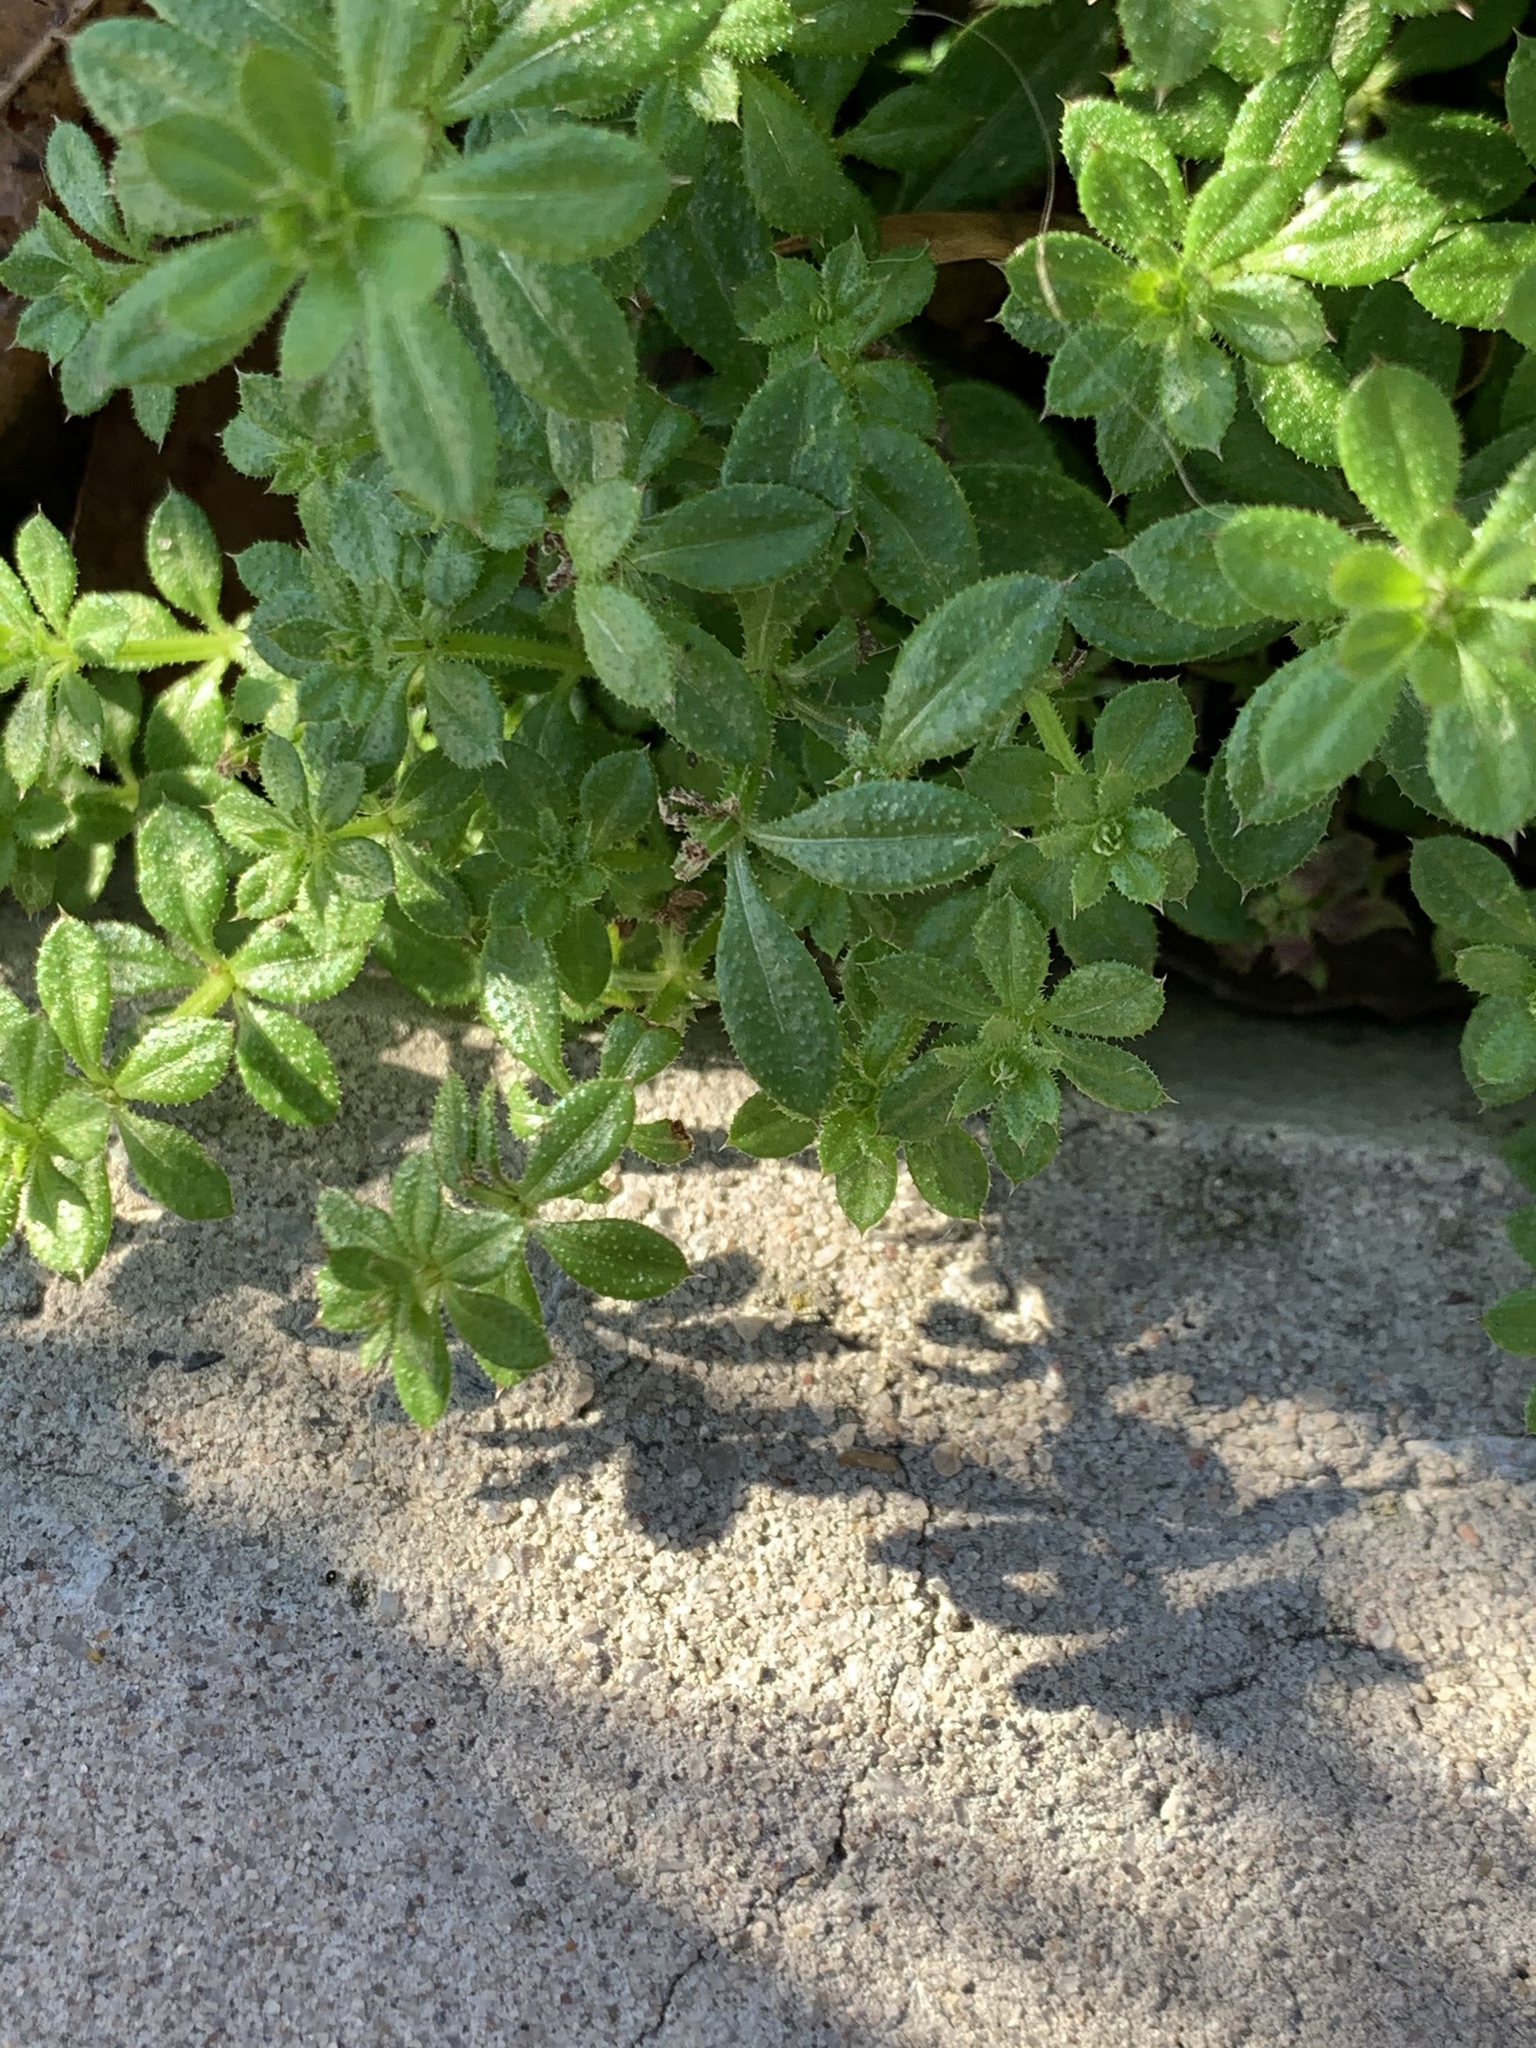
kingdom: Plantae
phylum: Tracheophyta
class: Magnoliopsida
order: Gentianales
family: Rubiaceae
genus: Galium
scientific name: Galium aparine
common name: Cleavers
